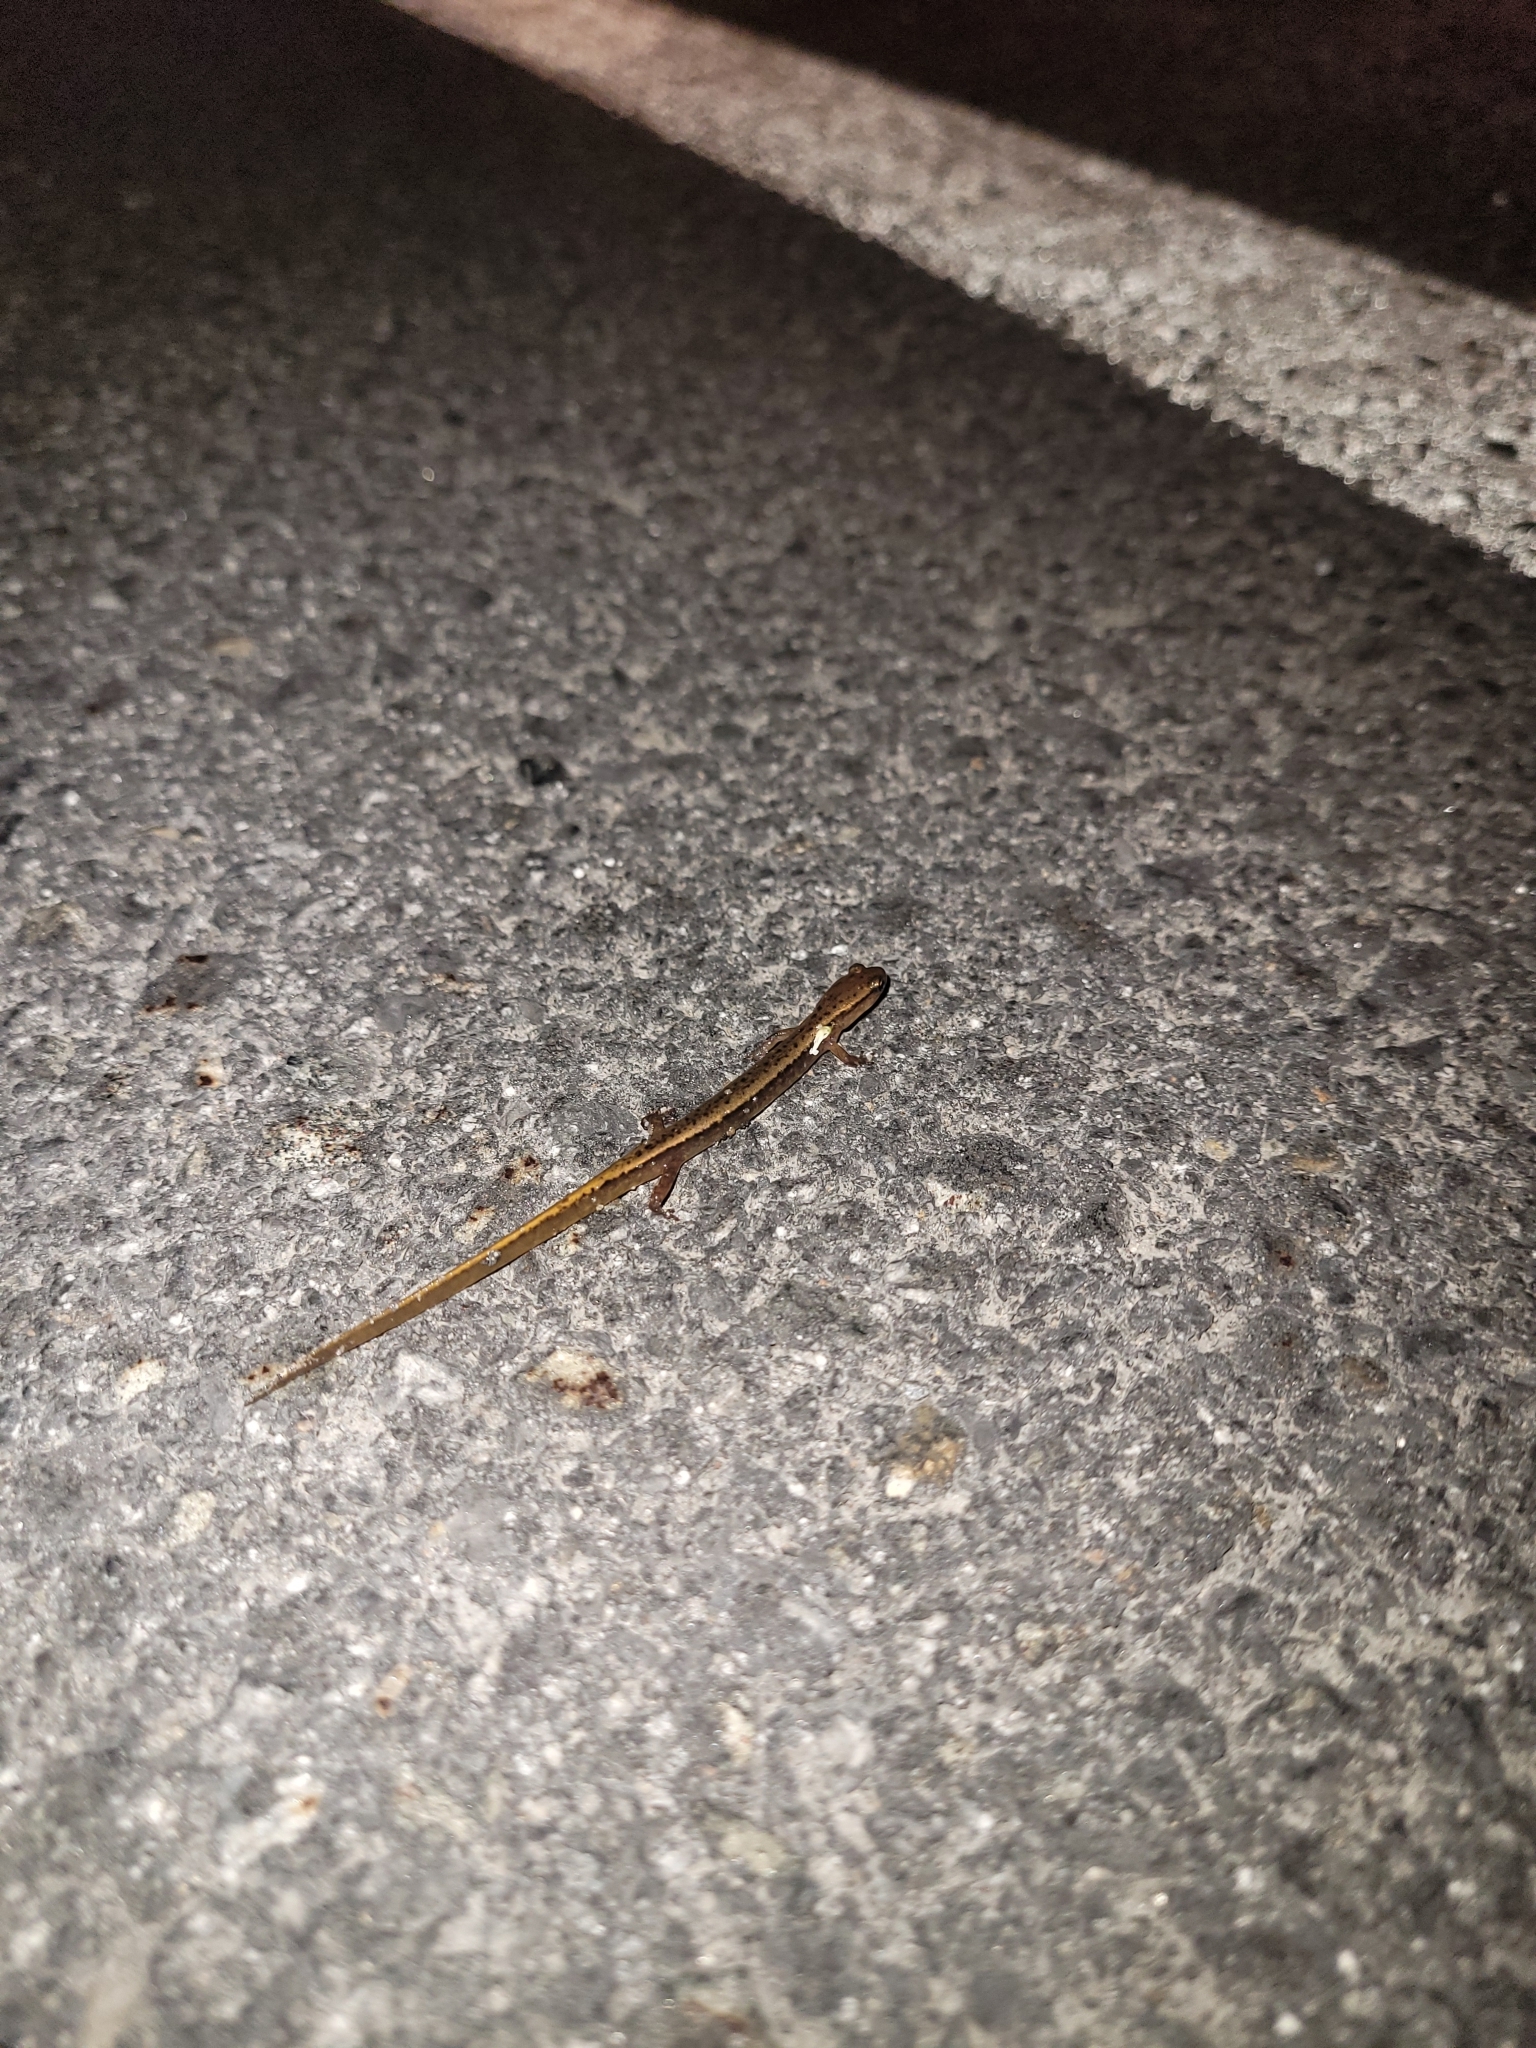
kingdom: Animalia
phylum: Chordata
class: Amphibia
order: Caudata
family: Plethodontidae
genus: Eurycea
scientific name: Eurycea bislineata
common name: Northern two-lined salamander
